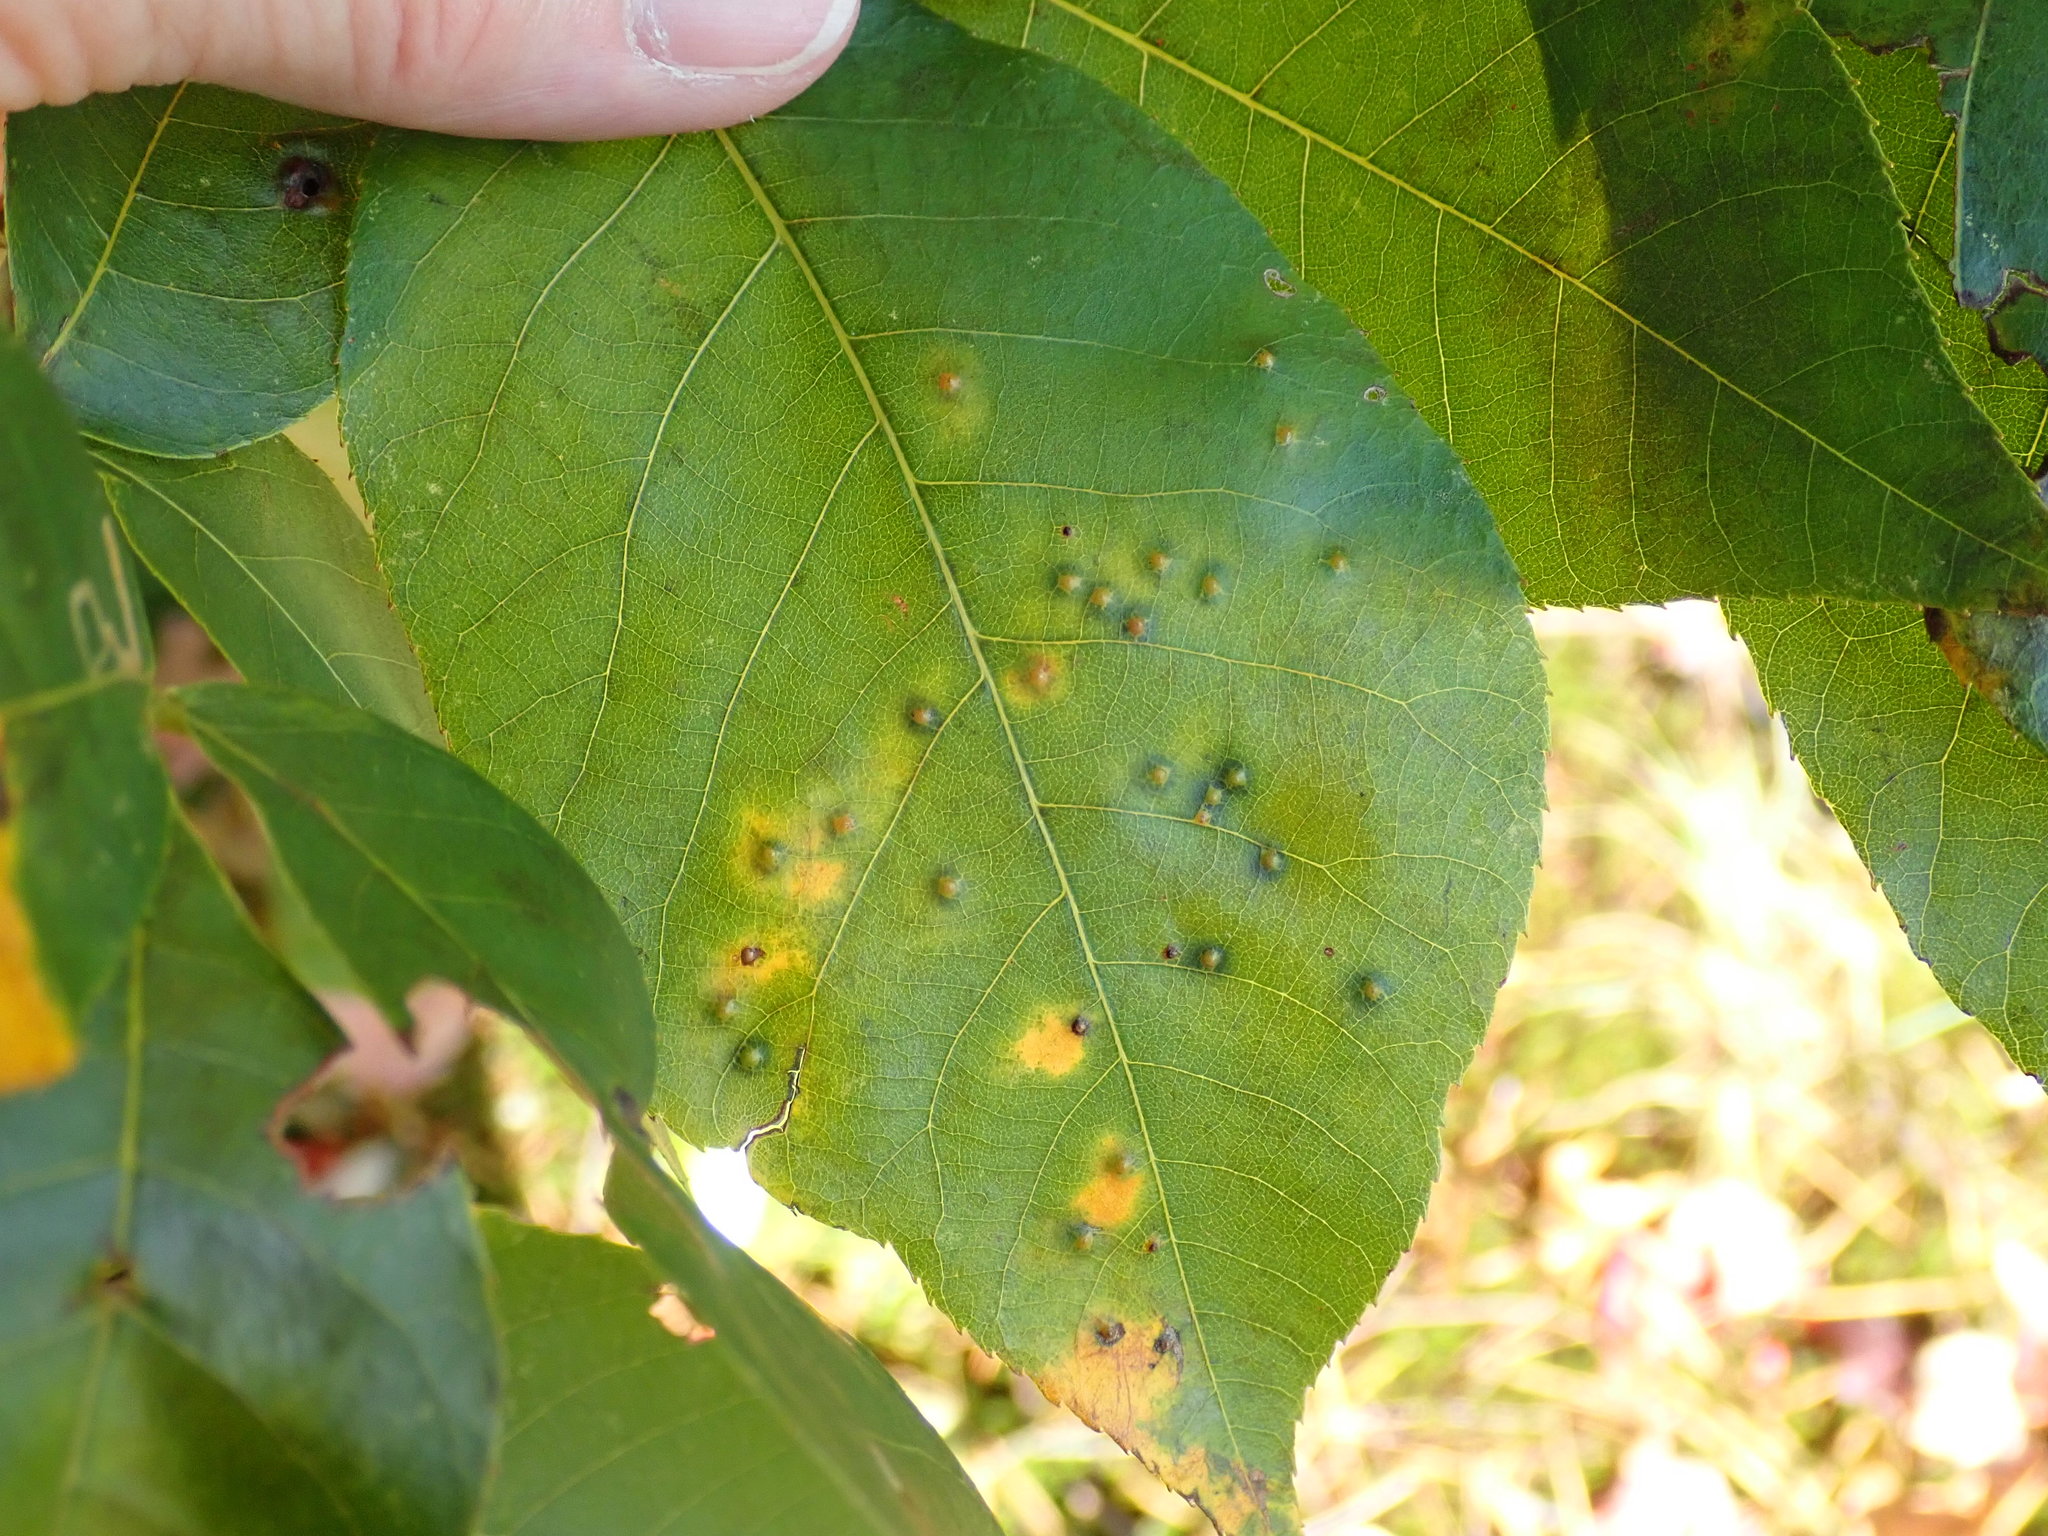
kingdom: Animalia
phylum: Arthropoda
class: Insecta
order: Diptera
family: Cecidomyiidae
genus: Caryomyia
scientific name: Caryomyia thompsoni
